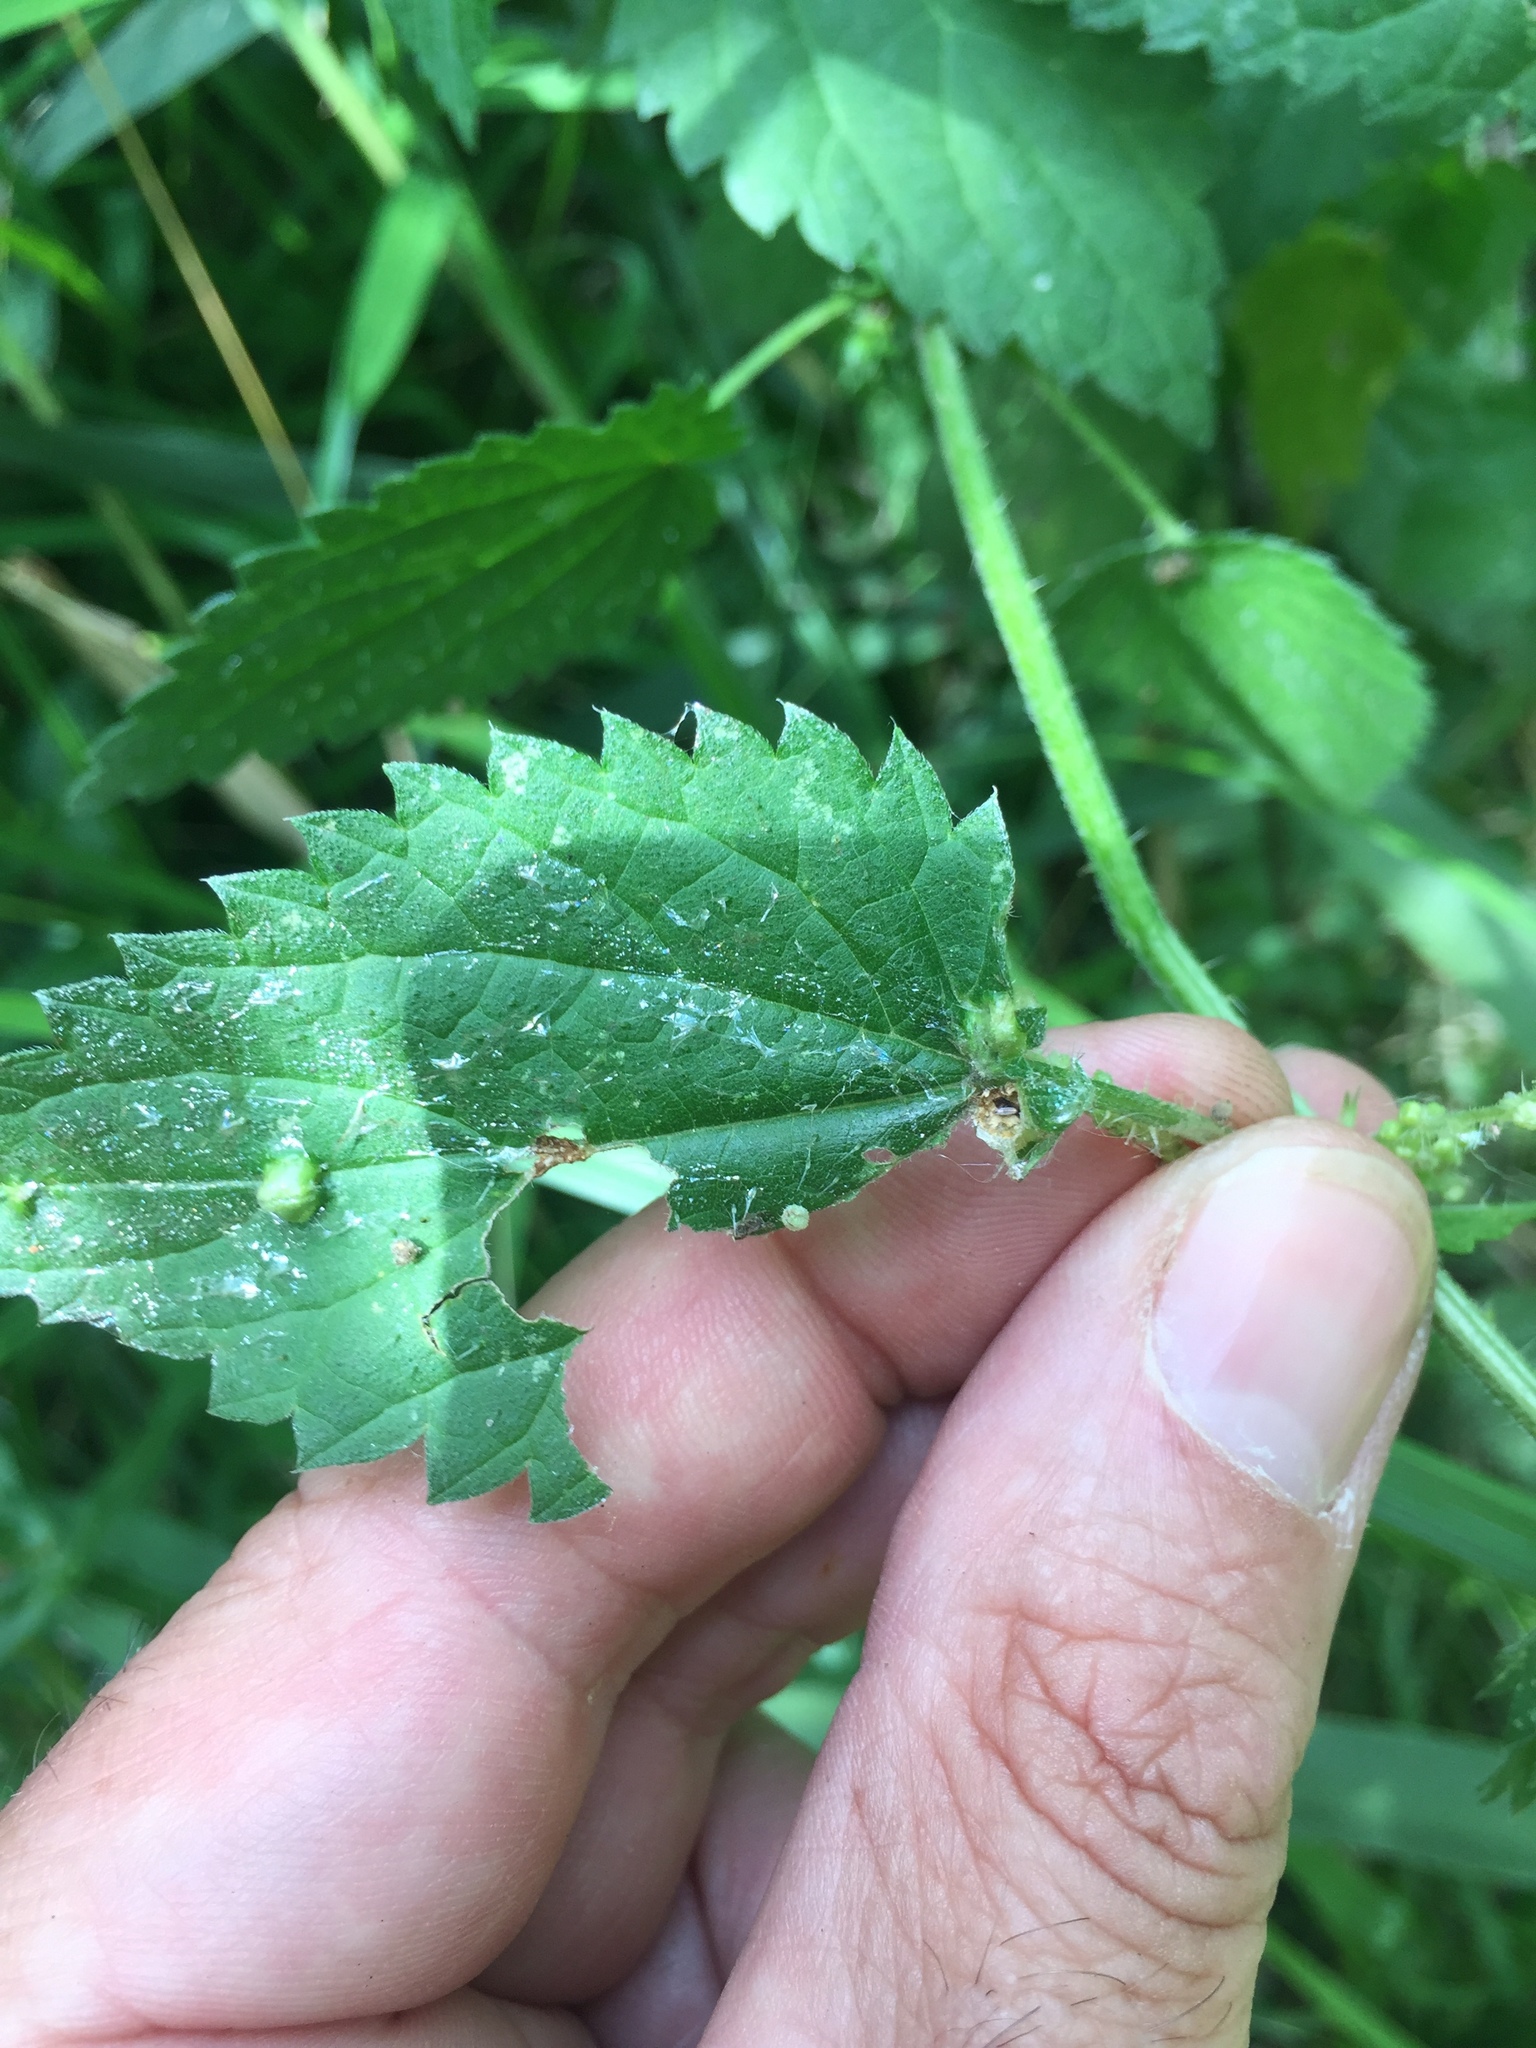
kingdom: Animalia
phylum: Arthropoda
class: Insecta
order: Diptera
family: Cecidomyiidae
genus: Dasineura
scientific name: Dasineura urticae
